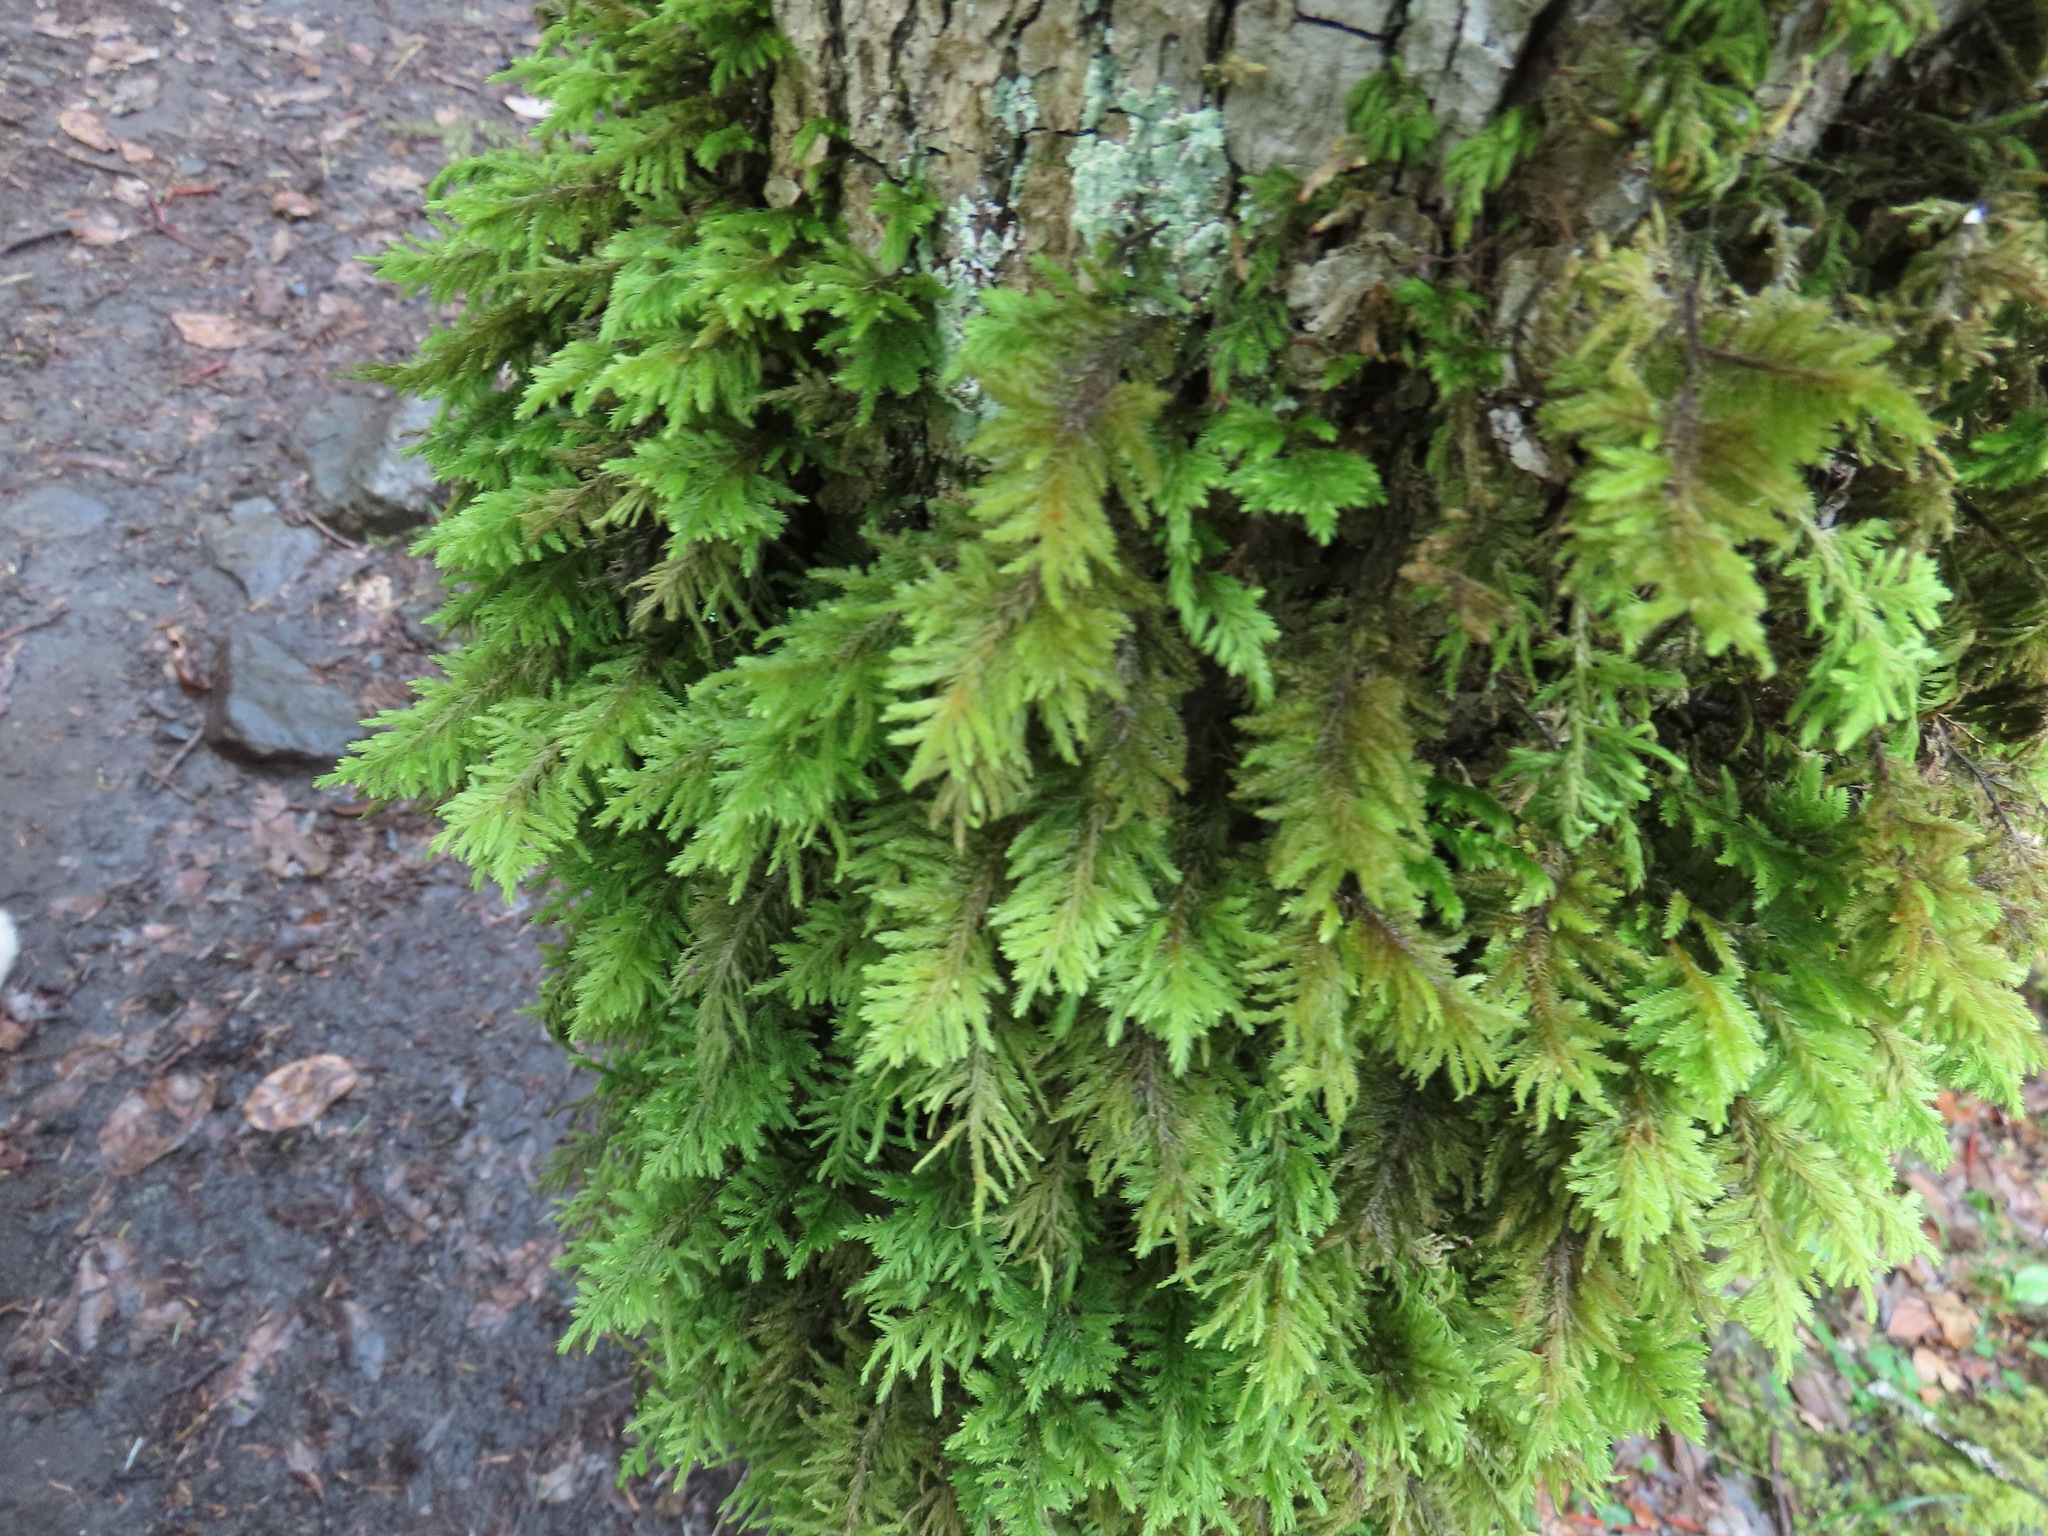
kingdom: Plantae
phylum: Bryophyta
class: Bryopsida
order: Hypnales
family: Cryphaeaceae
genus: Dendroalsia
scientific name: Dendroalsia abietina
